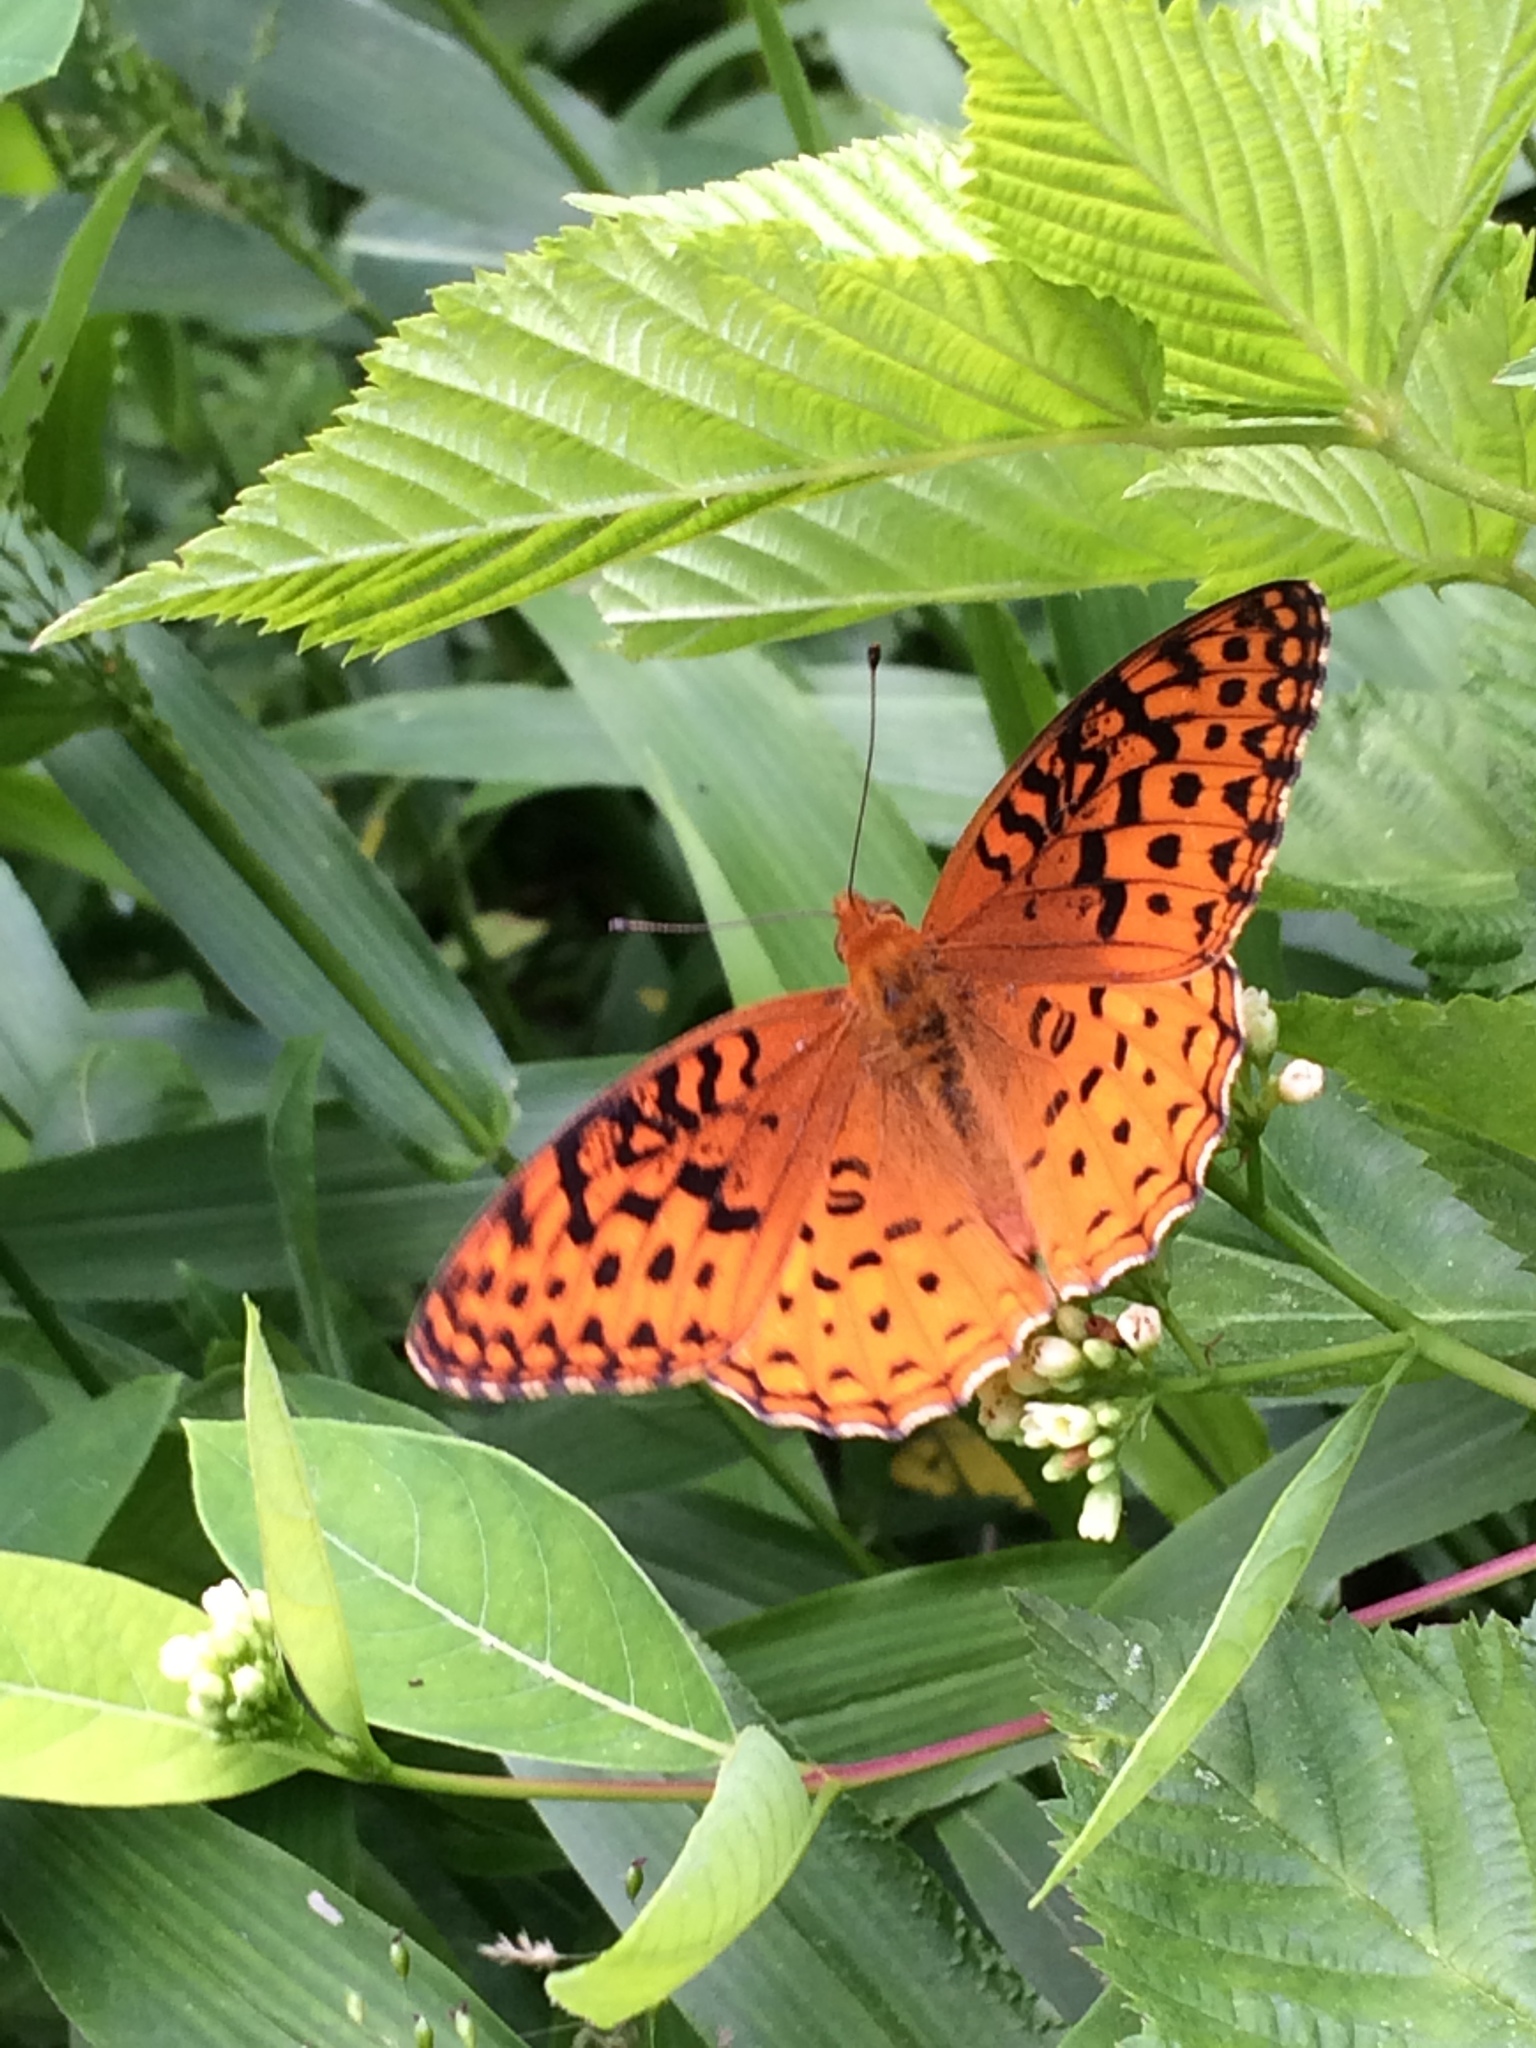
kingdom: Animalia
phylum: Arthropoda
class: Insecta
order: Lepidoptera
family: Nymphalidae
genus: Speyeria
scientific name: Speyeria aphrodite
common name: Aphrodite friitllary
